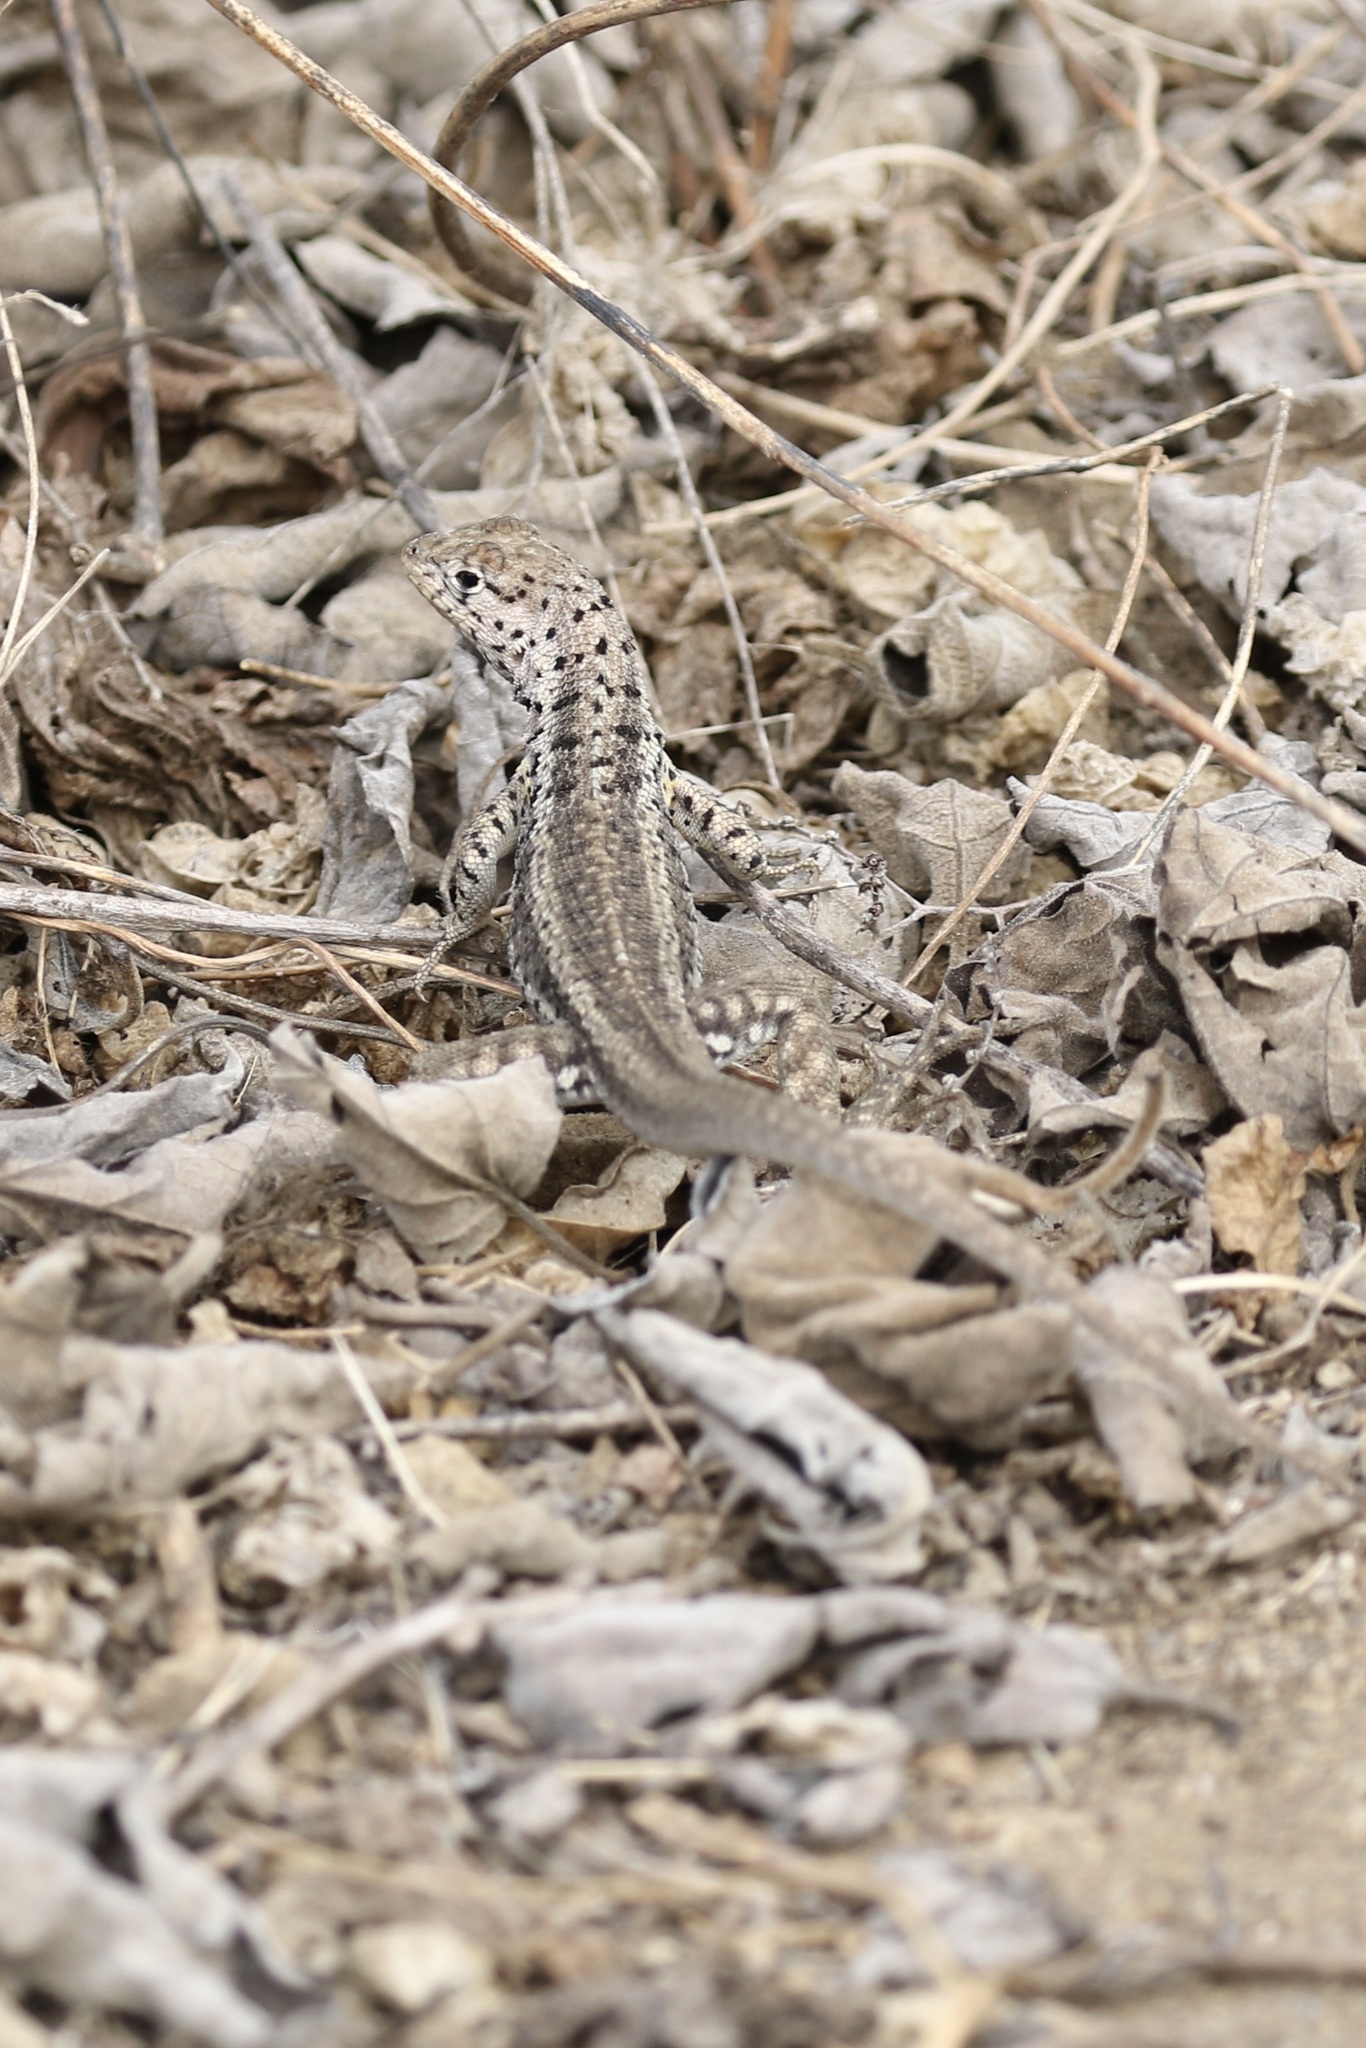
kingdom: Animalia
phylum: Chordata
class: Squamata
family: Tropiduridae
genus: Microlophus
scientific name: Microlophus albemarlensis
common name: Galapagos lava lizard
